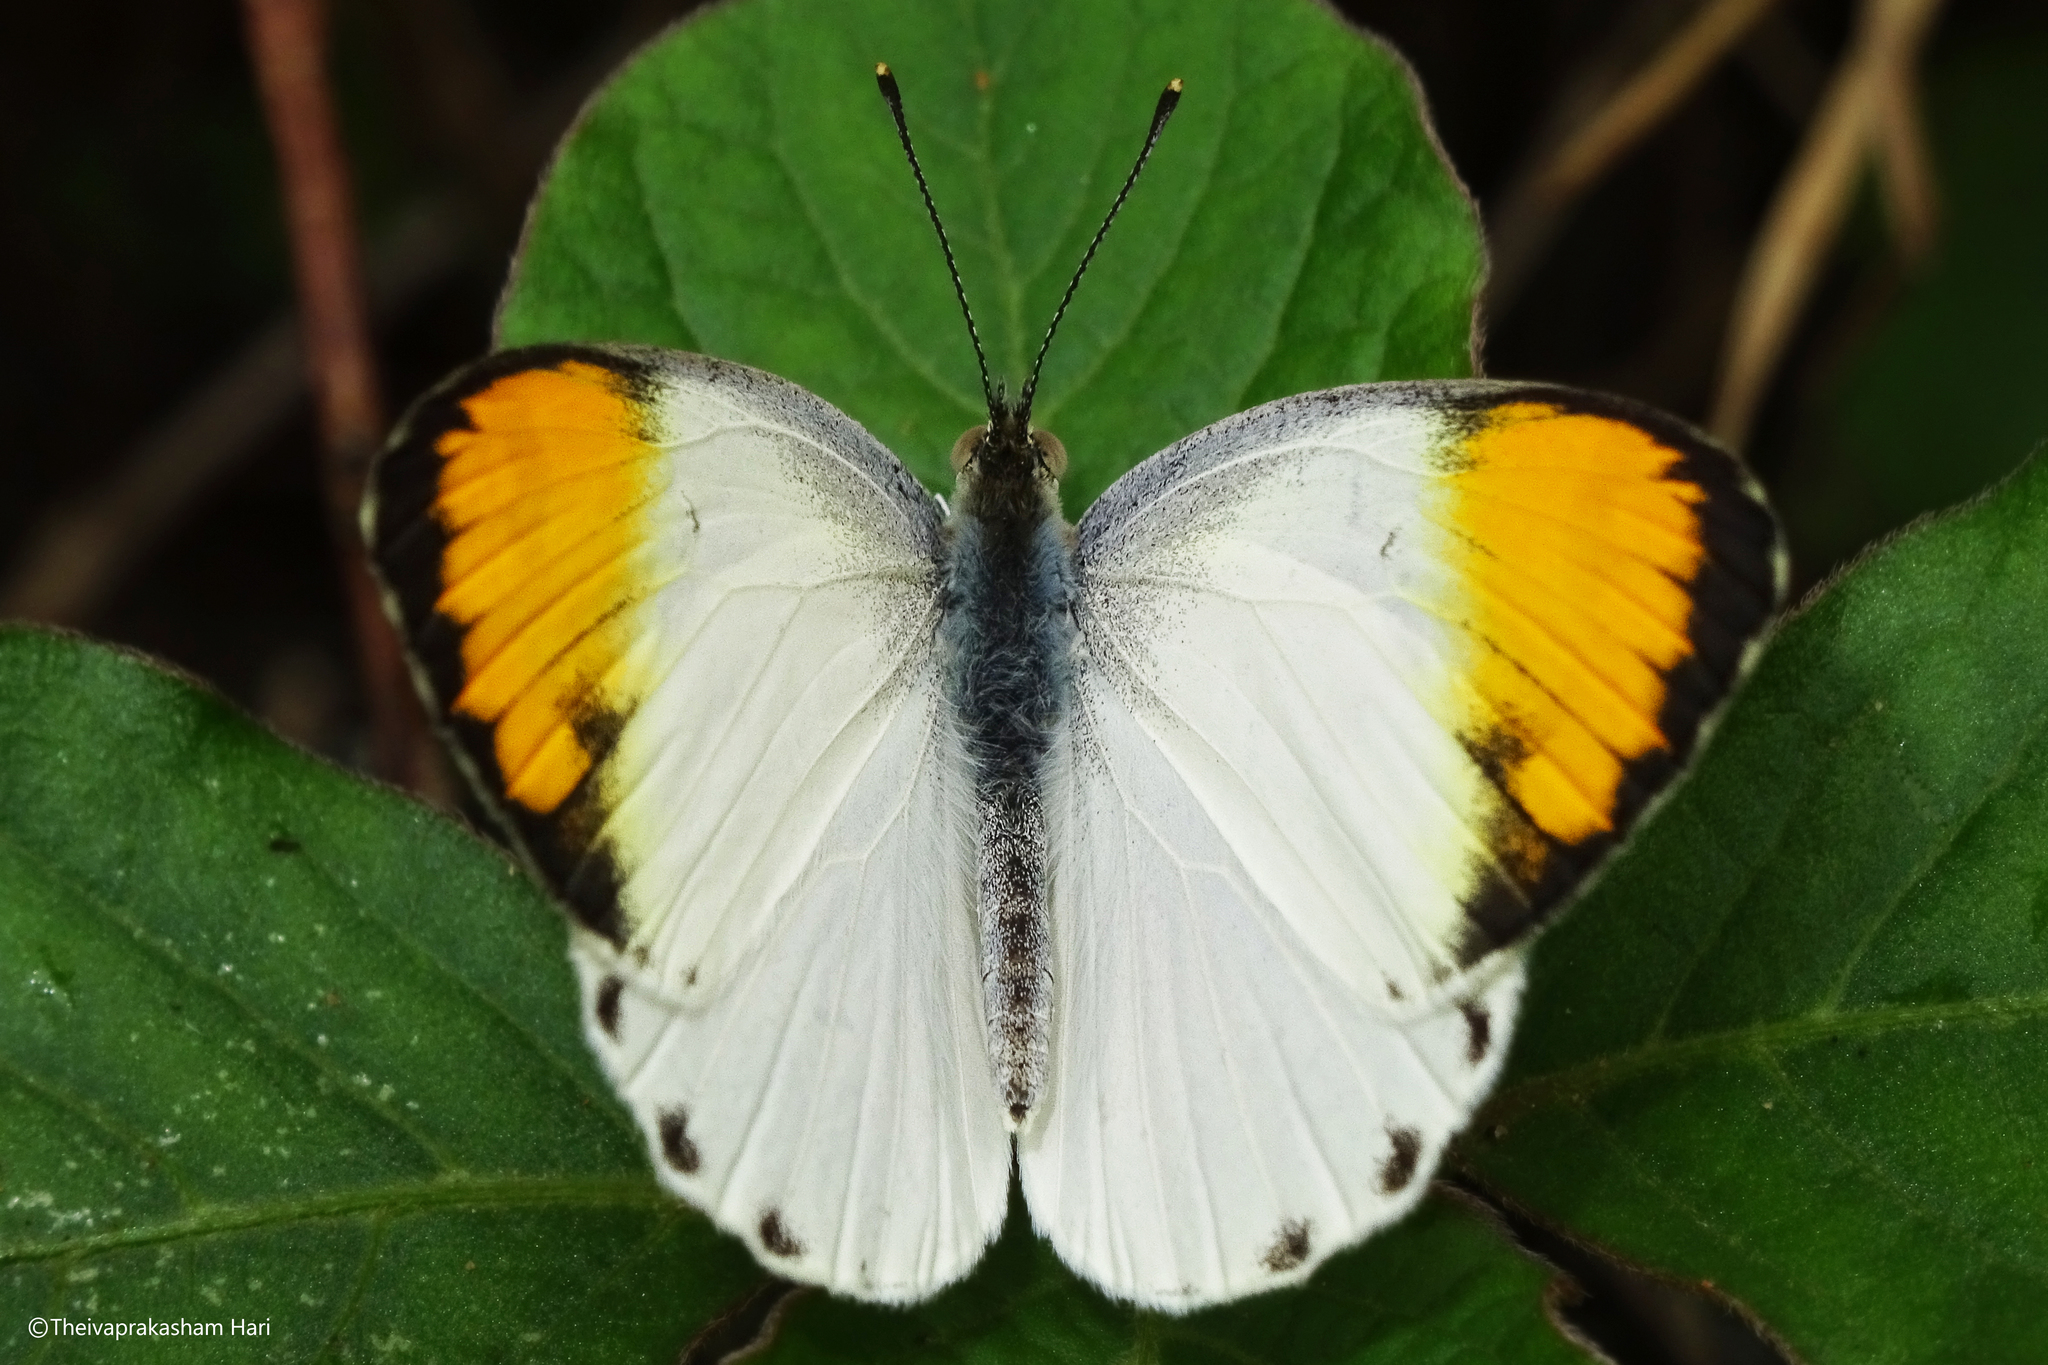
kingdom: Animalia
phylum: Arthropoda
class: Insecta
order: Lepidoptera
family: Pieridae
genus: Colotis
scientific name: Colotis aurora
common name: Plain orange-tip
